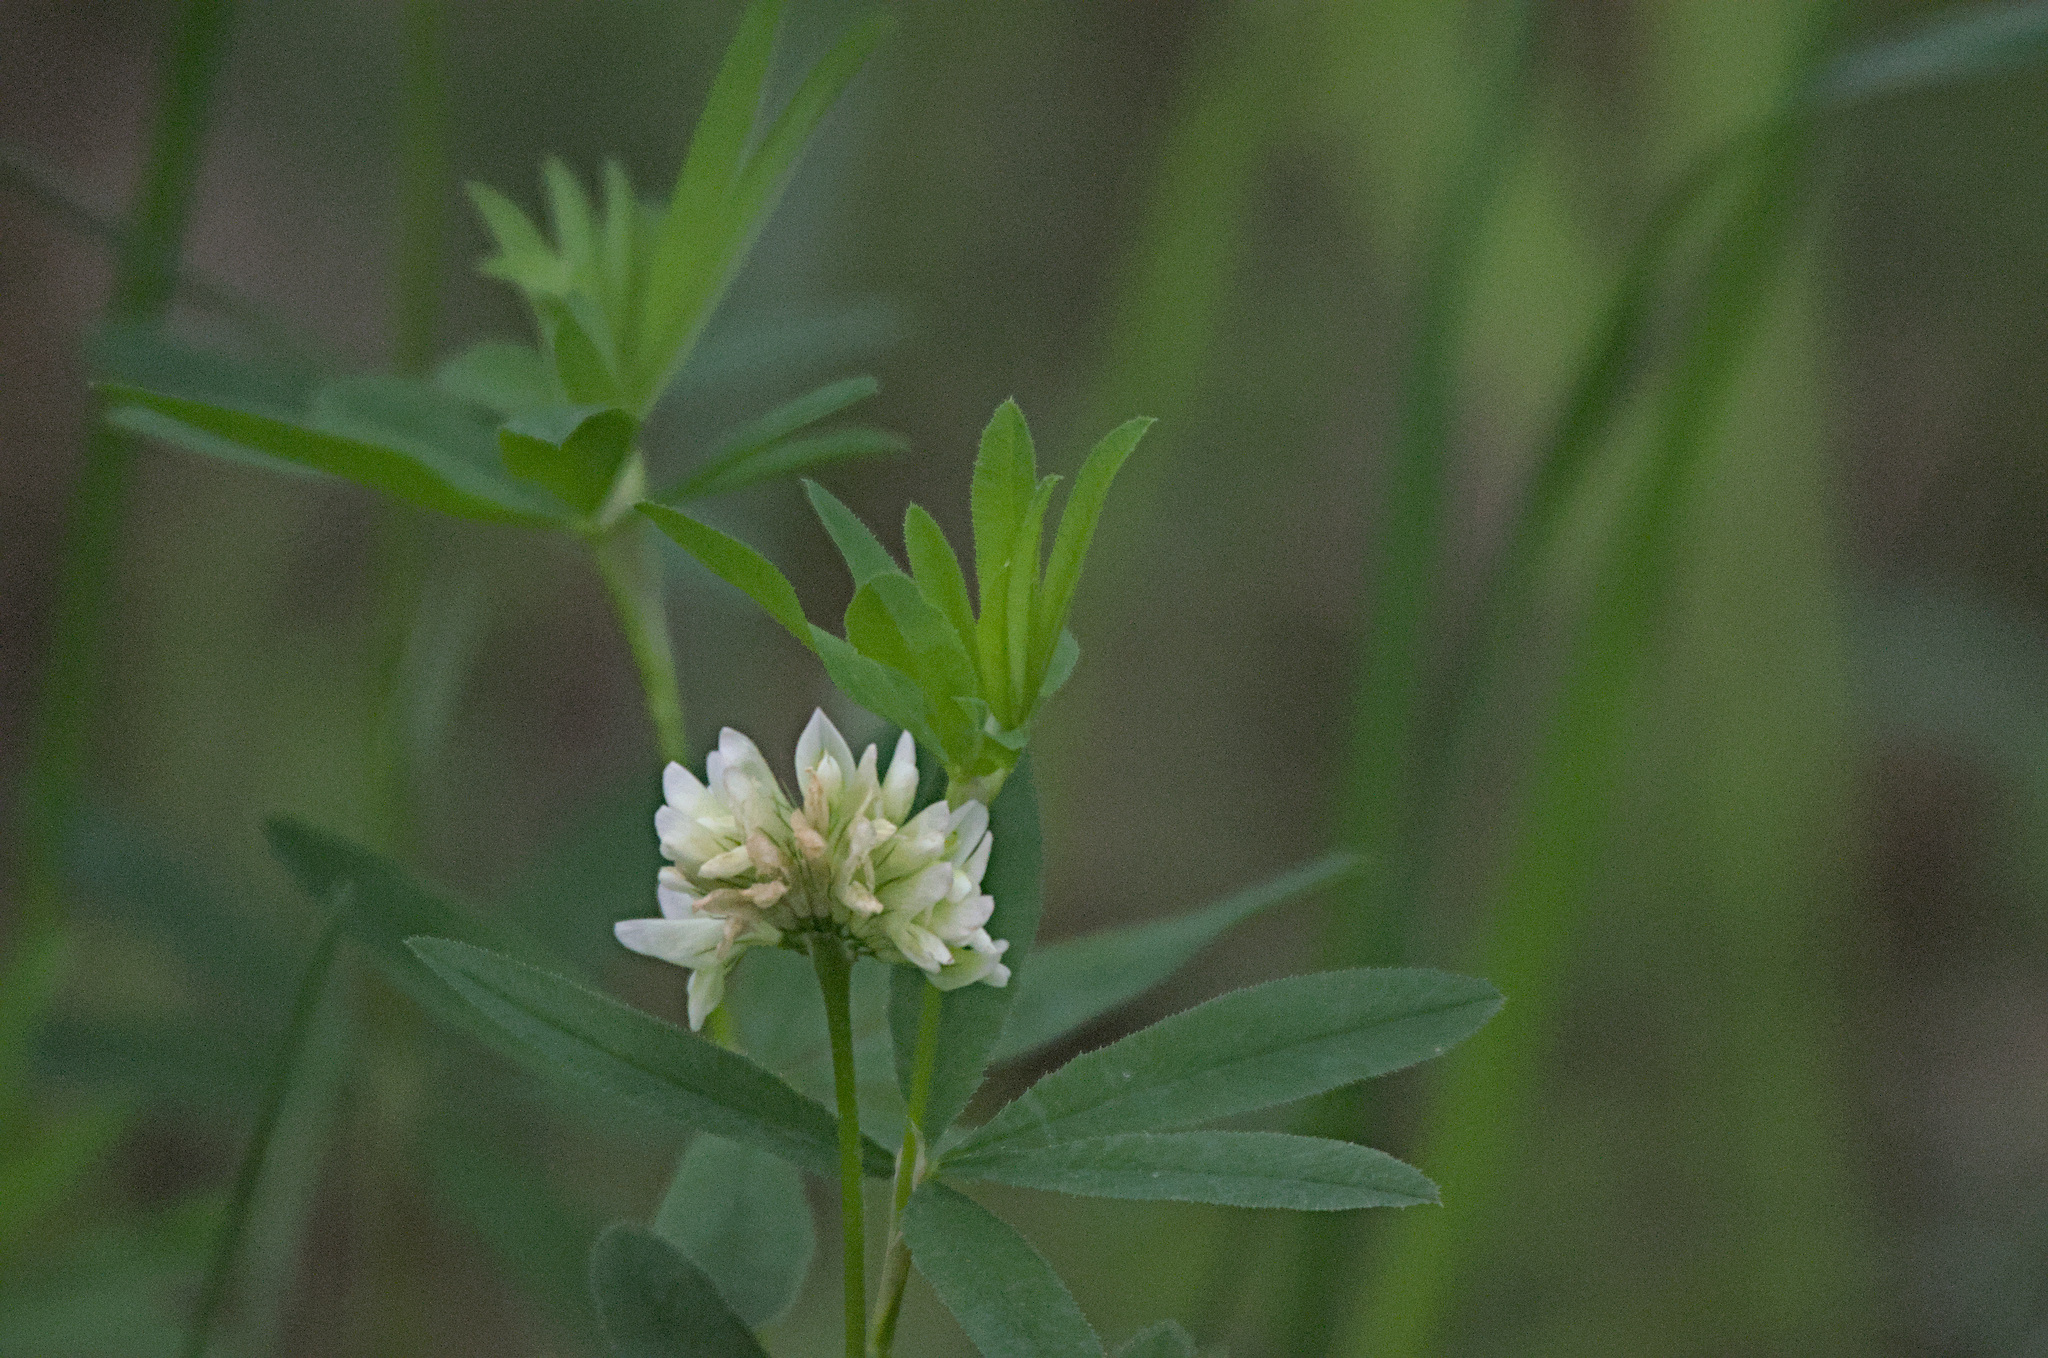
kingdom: Plantae
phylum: Tracheophyta
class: Magnoliopsida
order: Fabales
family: Fabaceae
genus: Trifolium
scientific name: Trifolium lupinaster
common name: Lupine clover
